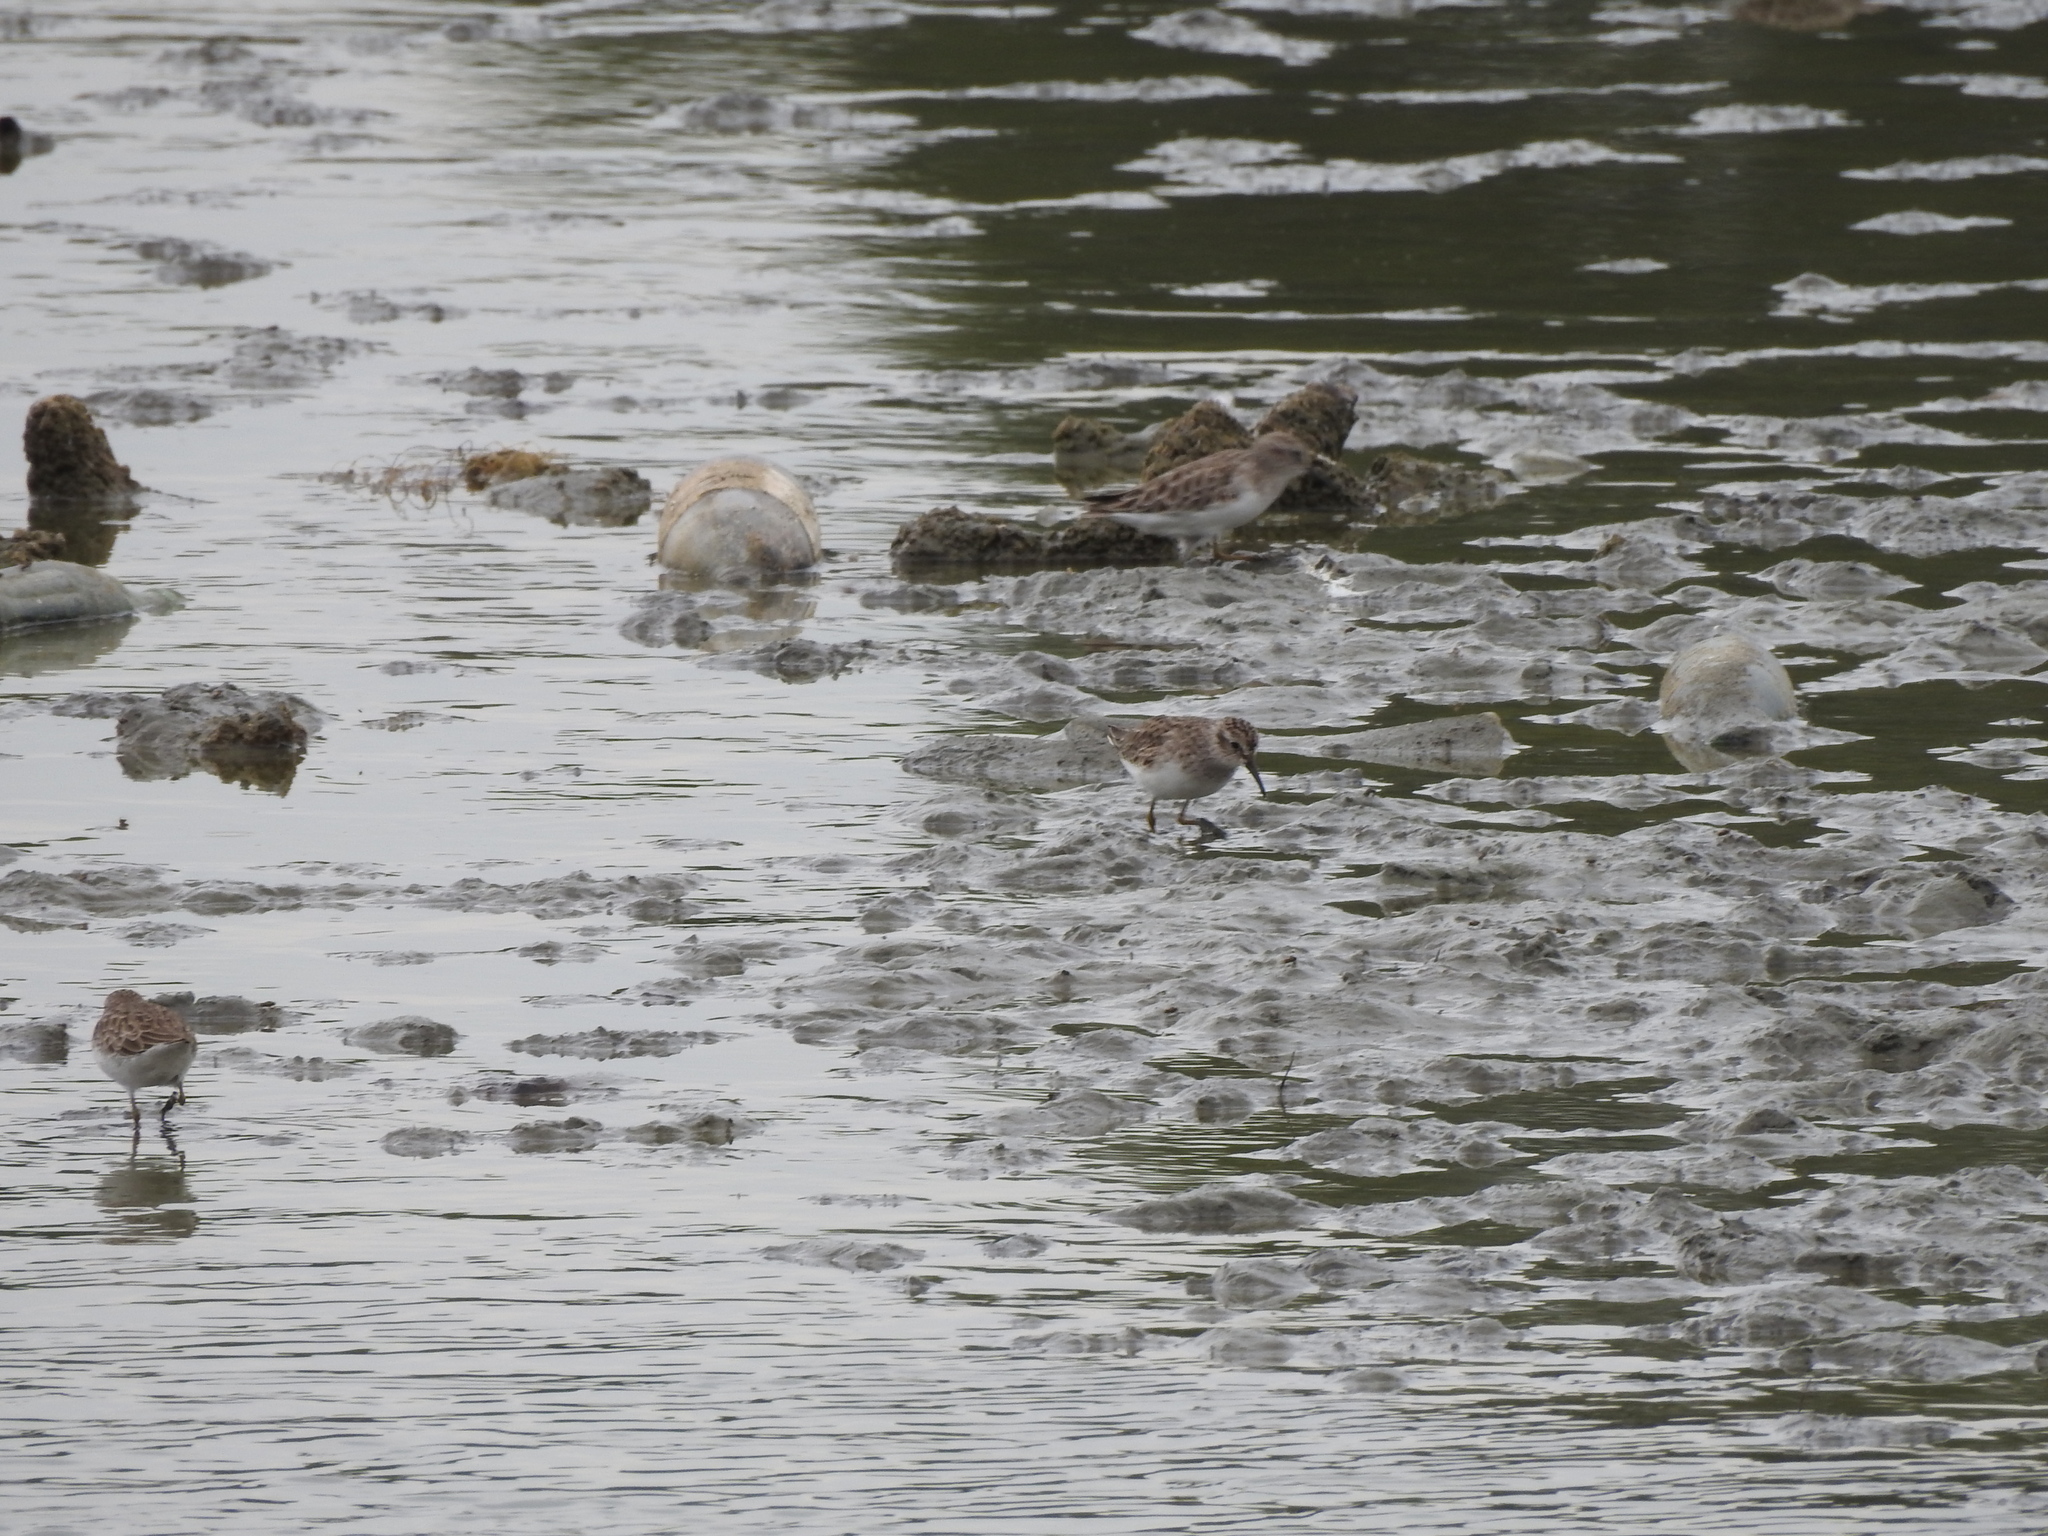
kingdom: Animalia
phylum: Chordata
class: Aves
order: Charadriiformes
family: Scolopacidae
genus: Calidris
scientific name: Calidris minutilla
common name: Least sandpiper
